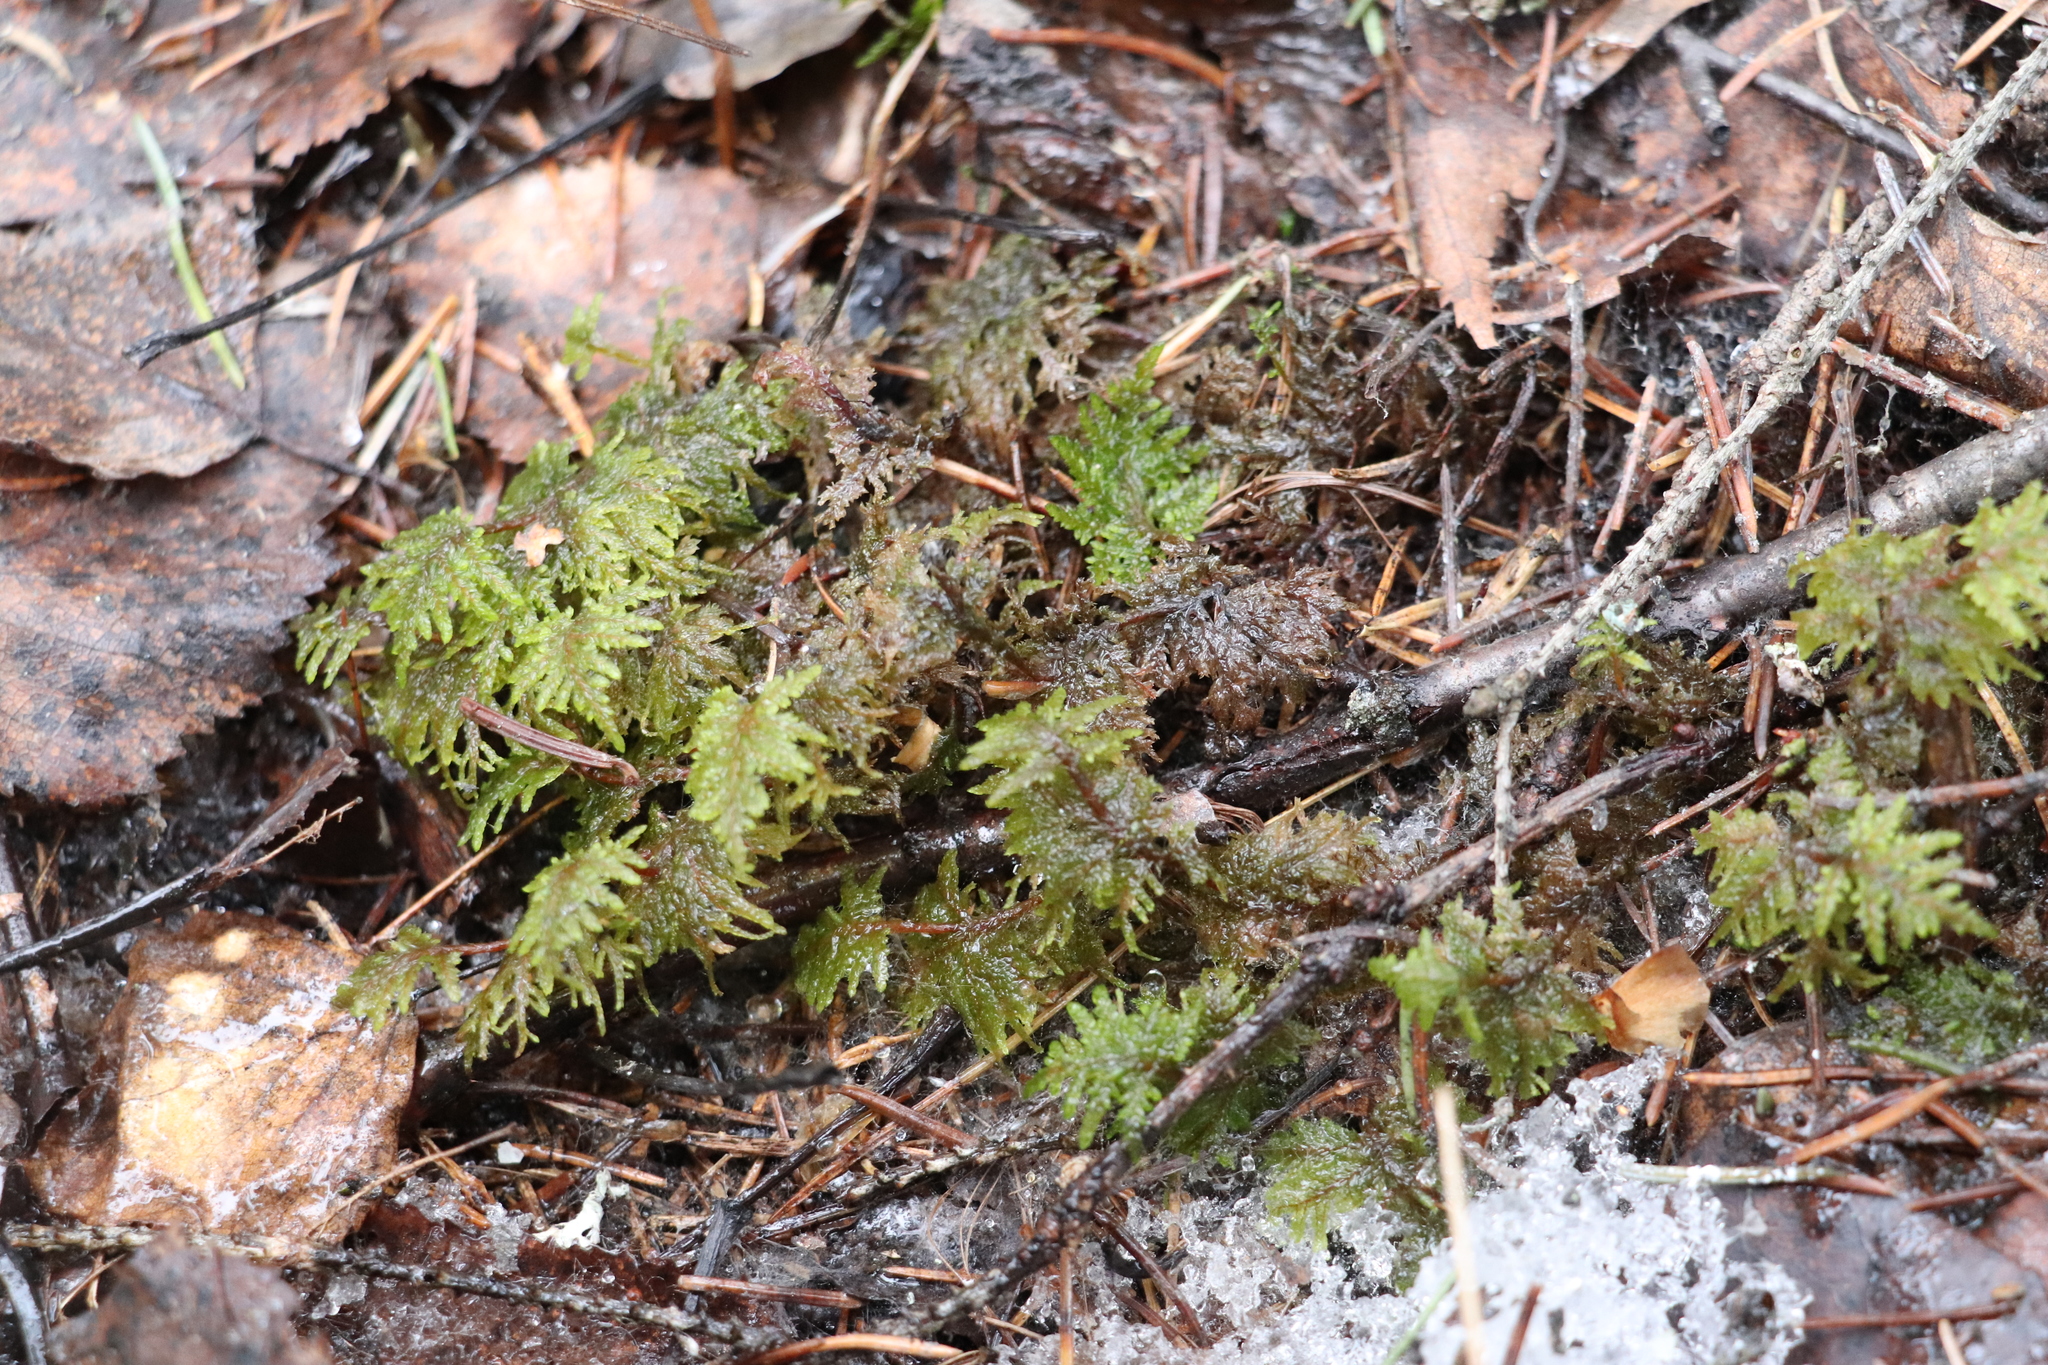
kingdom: Plantae
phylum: Bryophyta
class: Bryopsida
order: Hypnales
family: Hylocomiaceae
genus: Hylocomium
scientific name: Hylocomium splendens
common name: Stairstep moss
